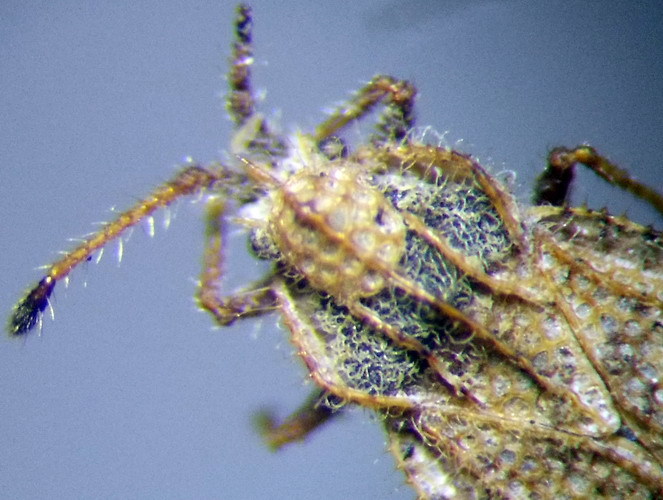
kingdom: Animalia
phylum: Arthropoda
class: Insecta
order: Hemiptera
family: Tingidae
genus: Lasiacantha
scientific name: Lasiacantha capucina
